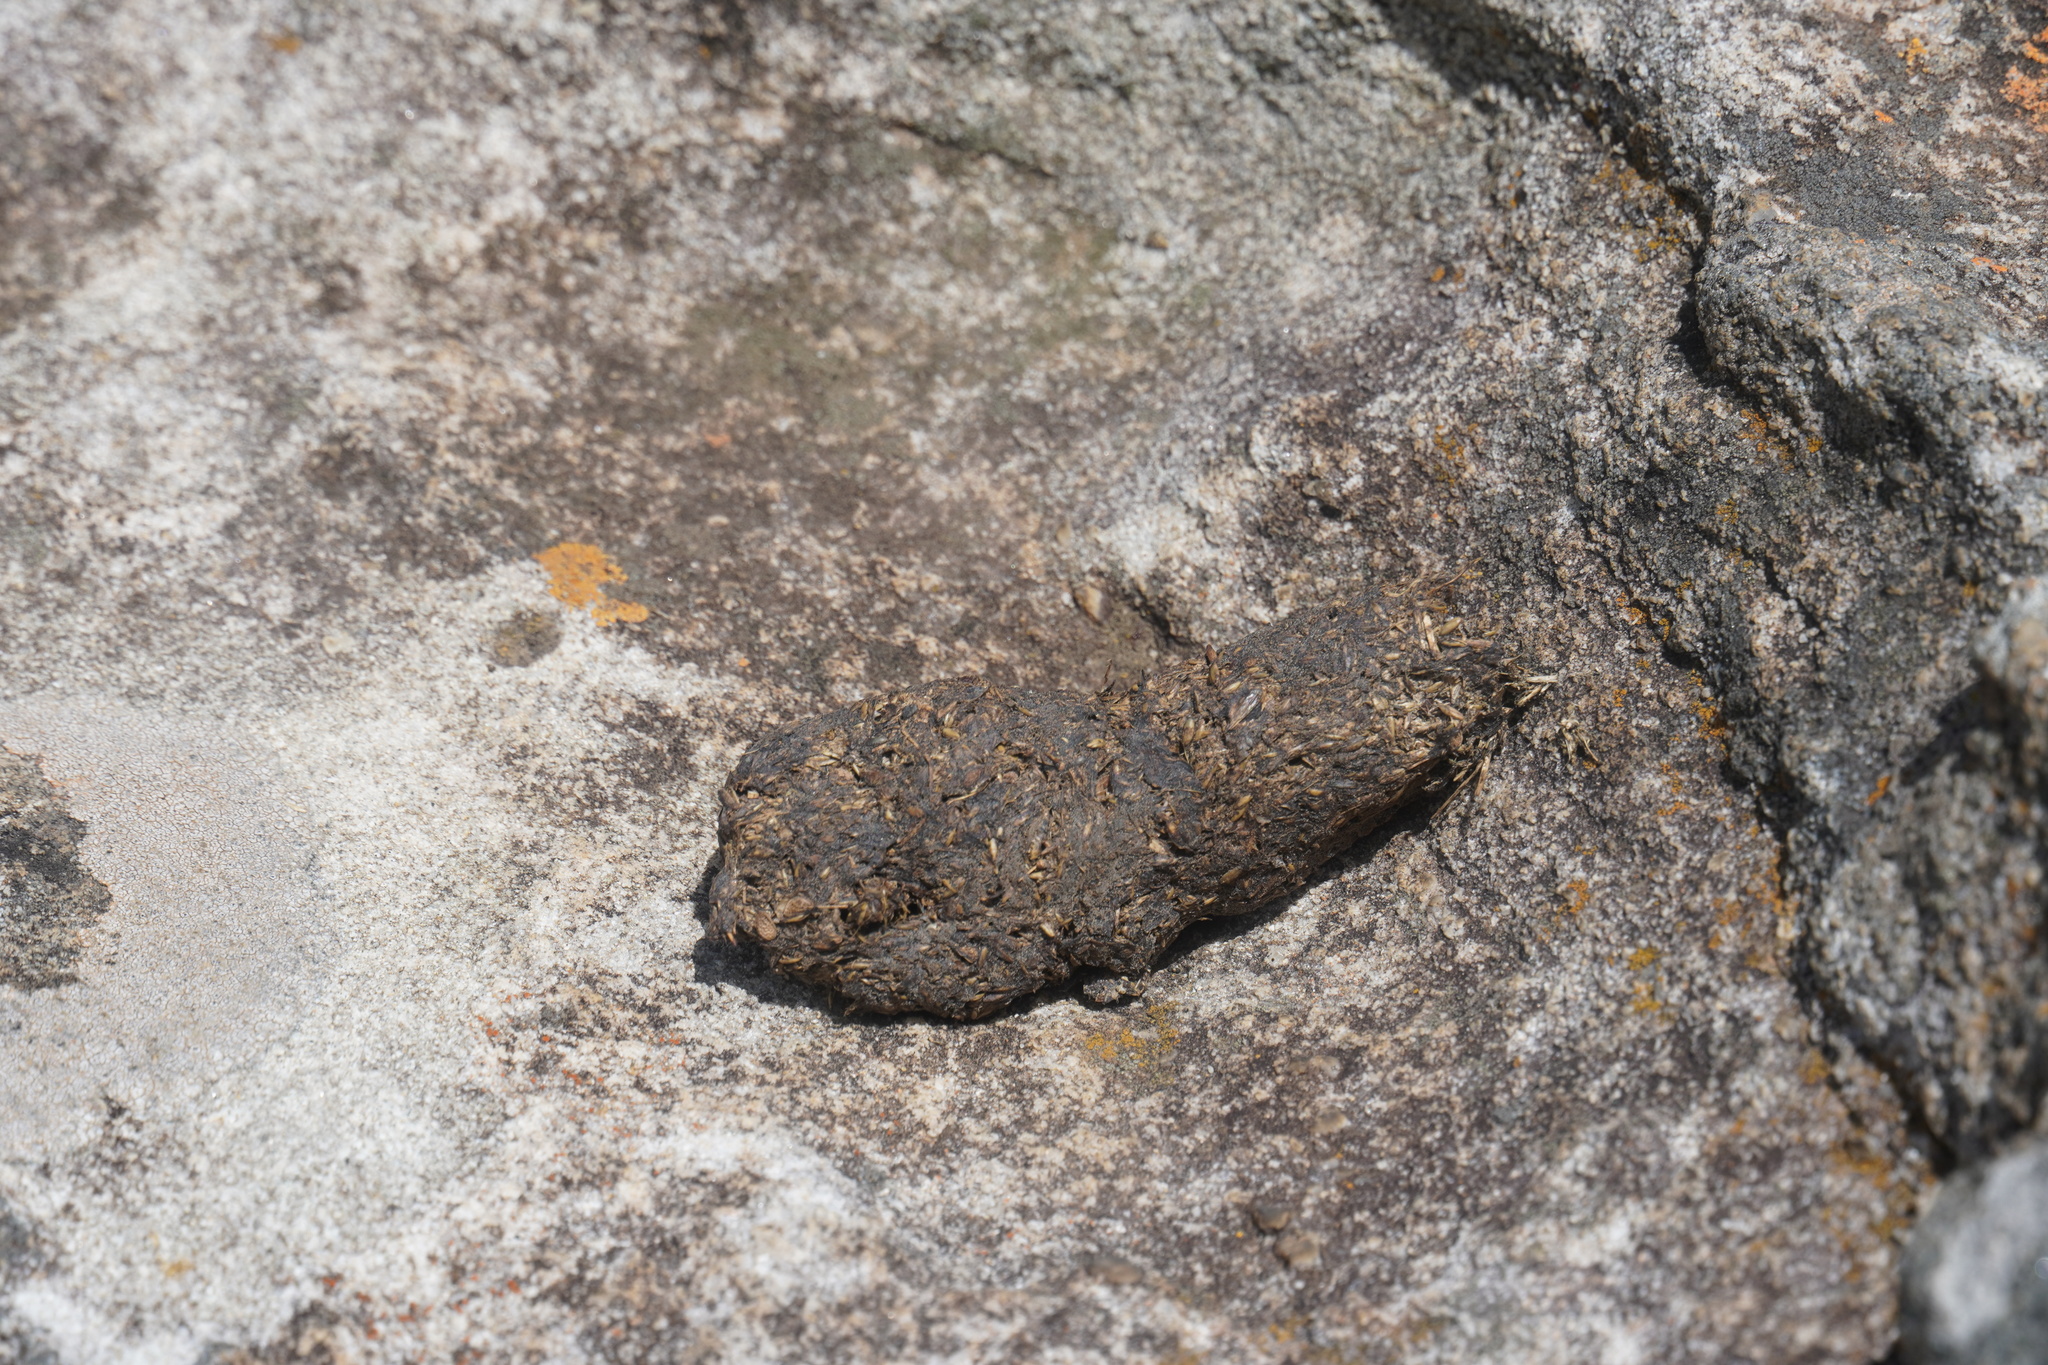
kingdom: Animalia
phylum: Chordata
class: Mammalia
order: Primates
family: Cercopithecidae
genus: Papio
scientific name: Papio ursinus
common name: Chacma baboon
